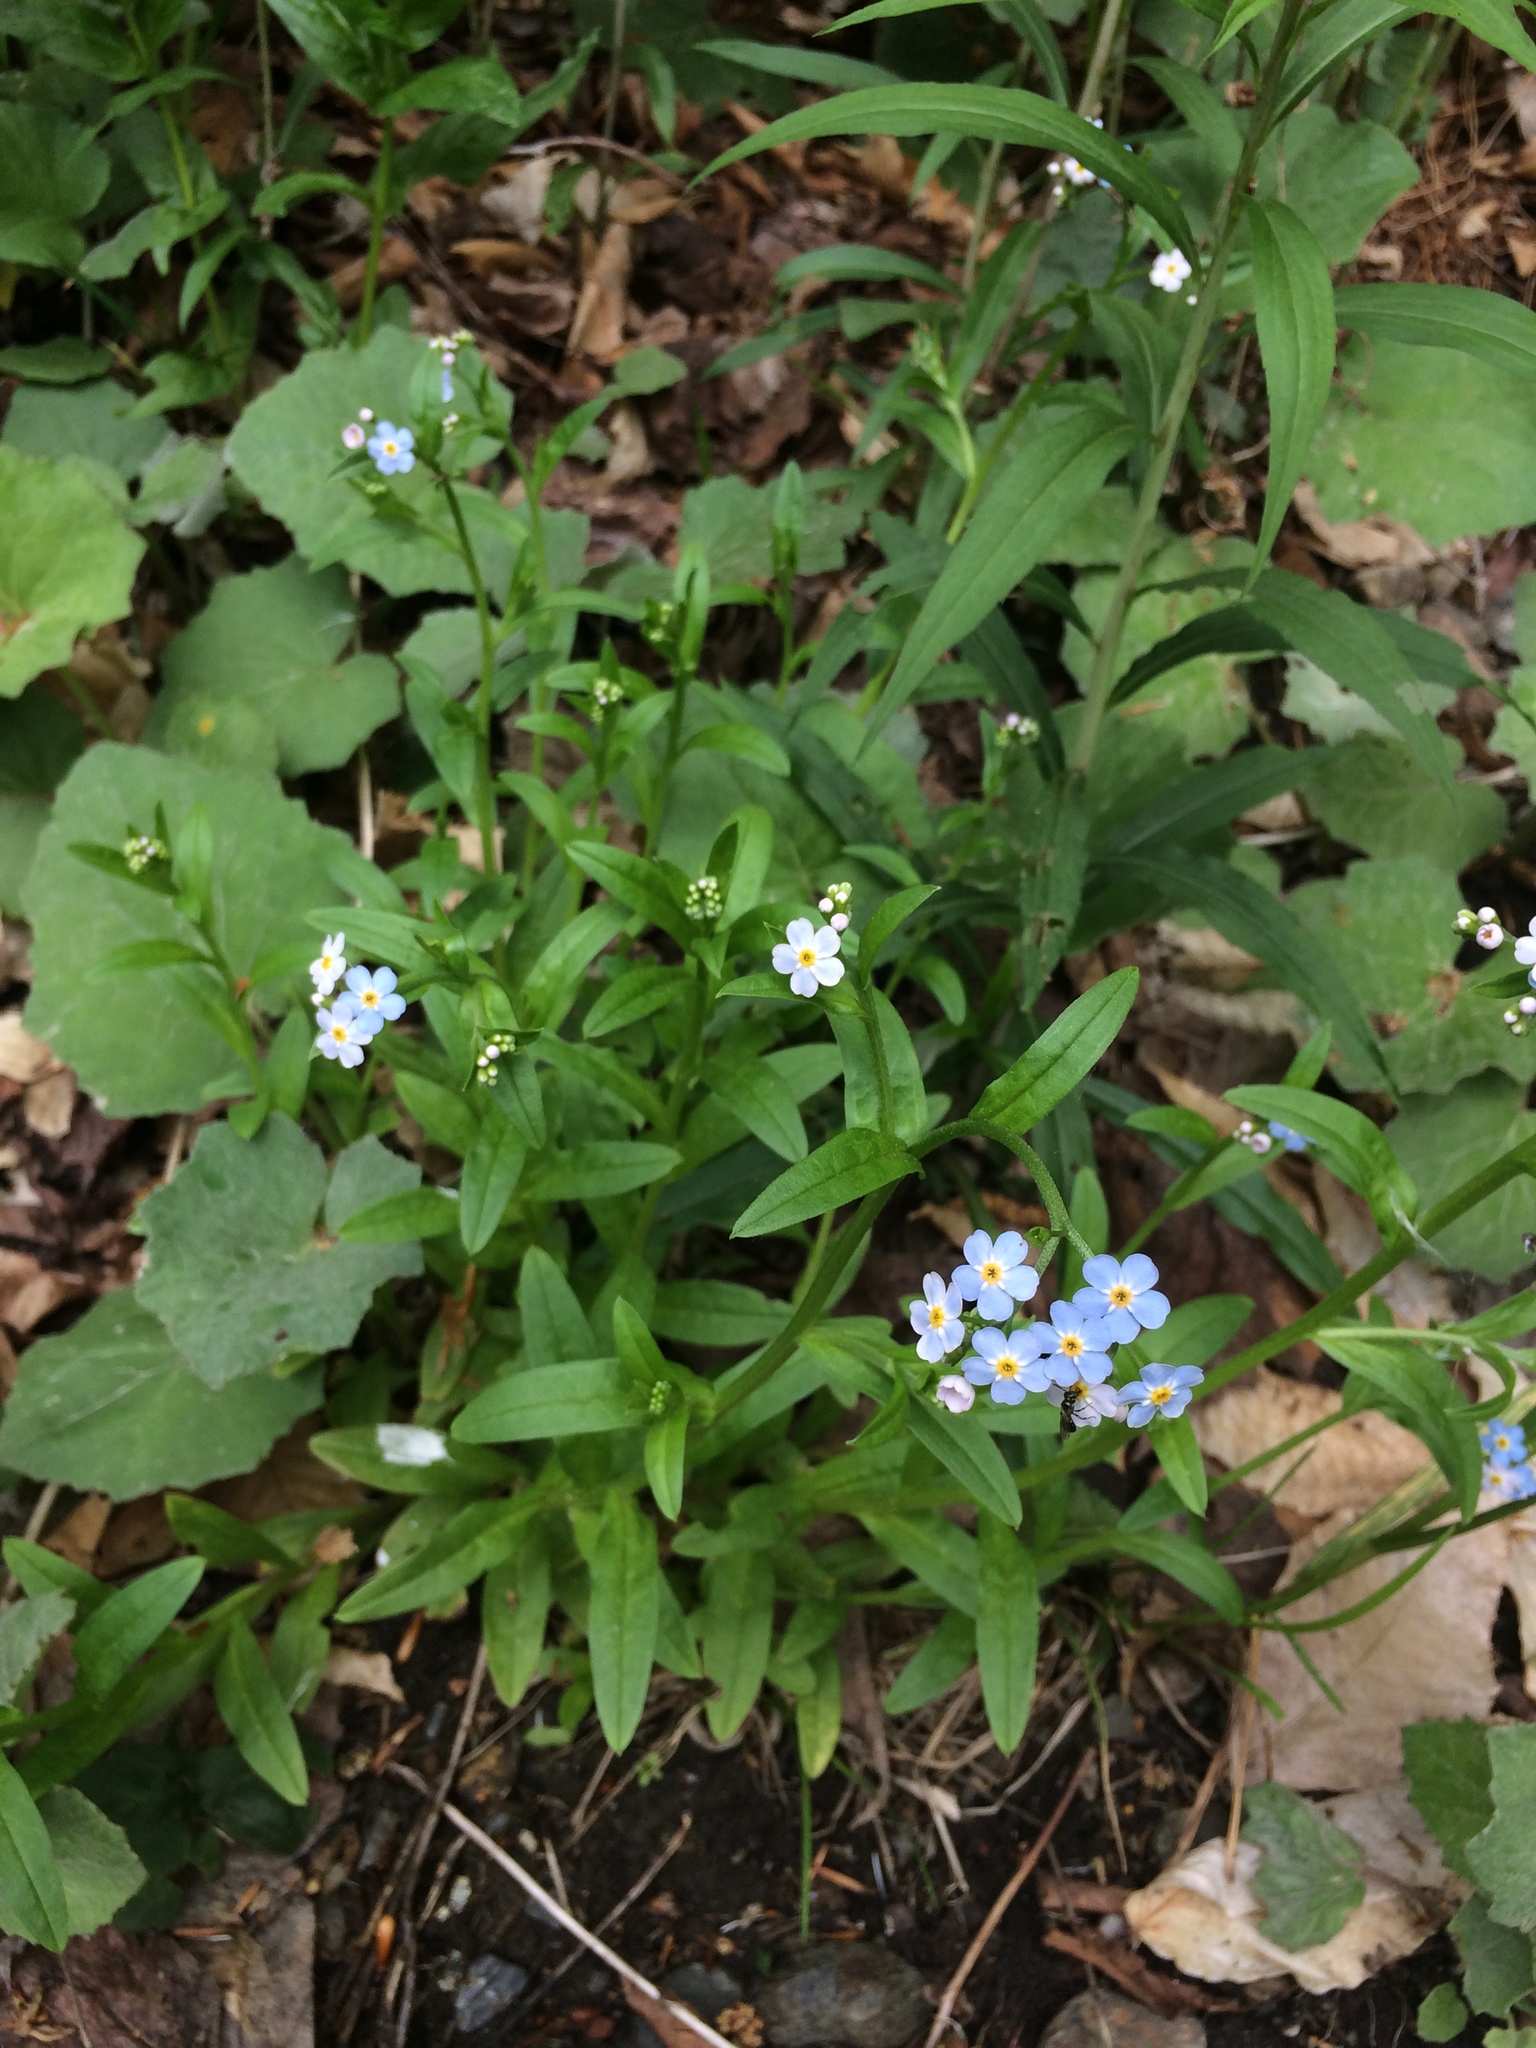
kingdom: Plantae
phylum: Tracheophyta
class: Magnoliopsida
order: Boraginales
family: Boraginaceae
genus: Myosotis
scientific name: Myosotis scorpioides
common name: Water forget-me-not
